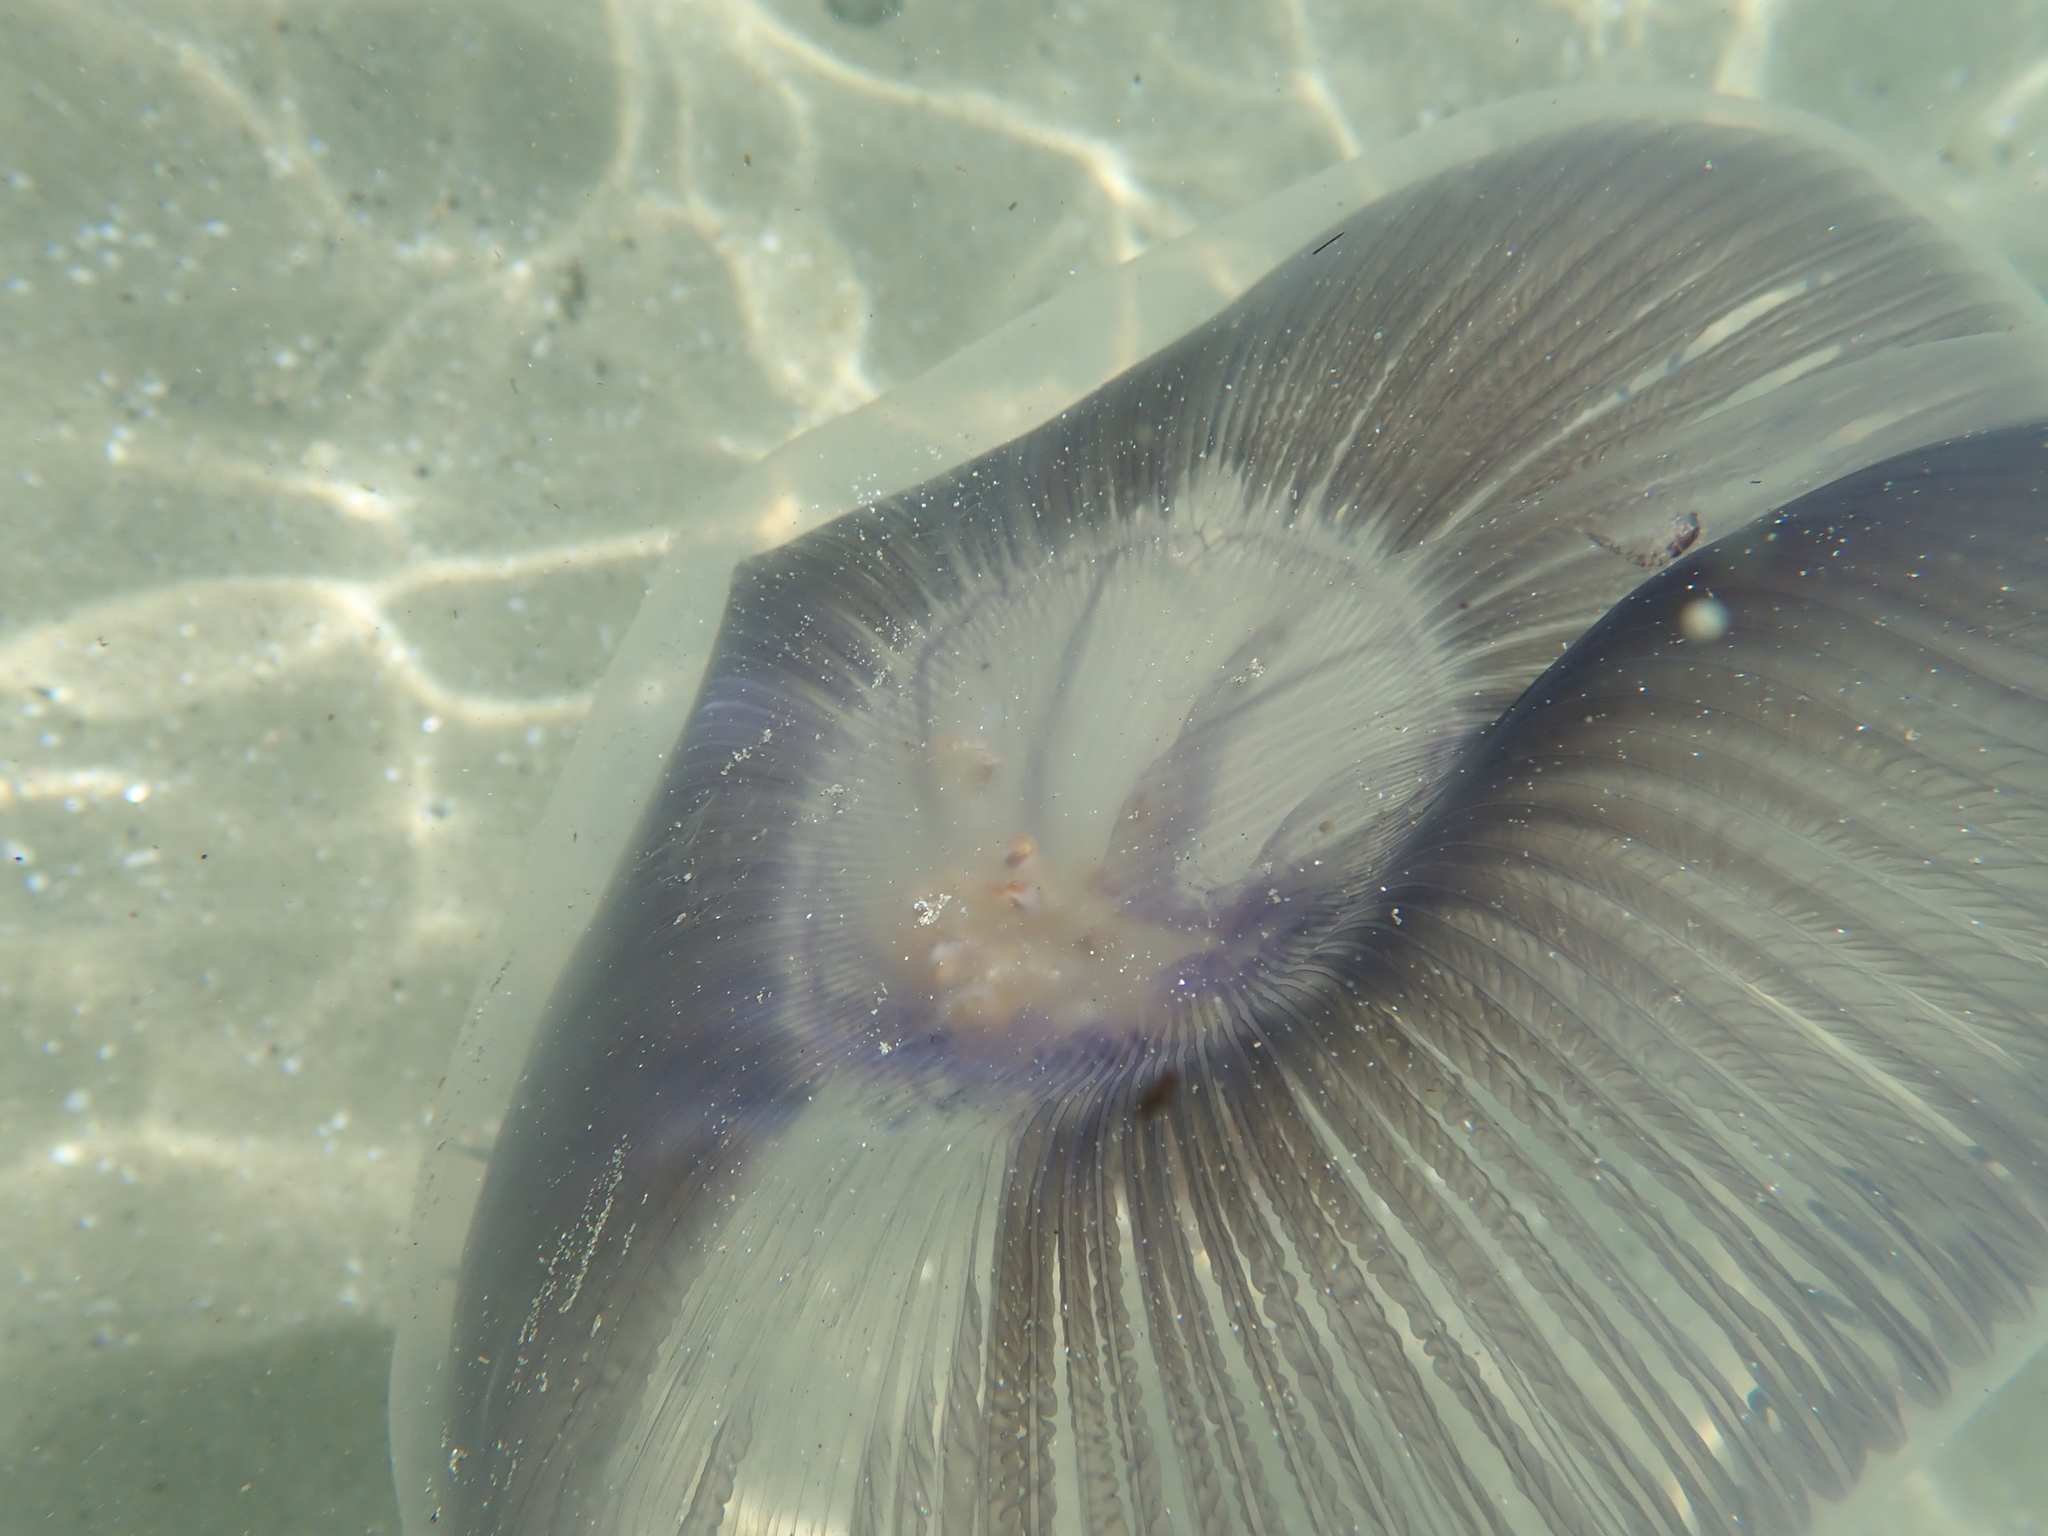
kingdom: Animalia
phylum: Cnidaria
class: Hydrozoa
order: Leptothecata
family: Aequoreidae
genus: Aequorea
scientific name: Aequorea forskalea
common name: Many-ribbed jellyfish
